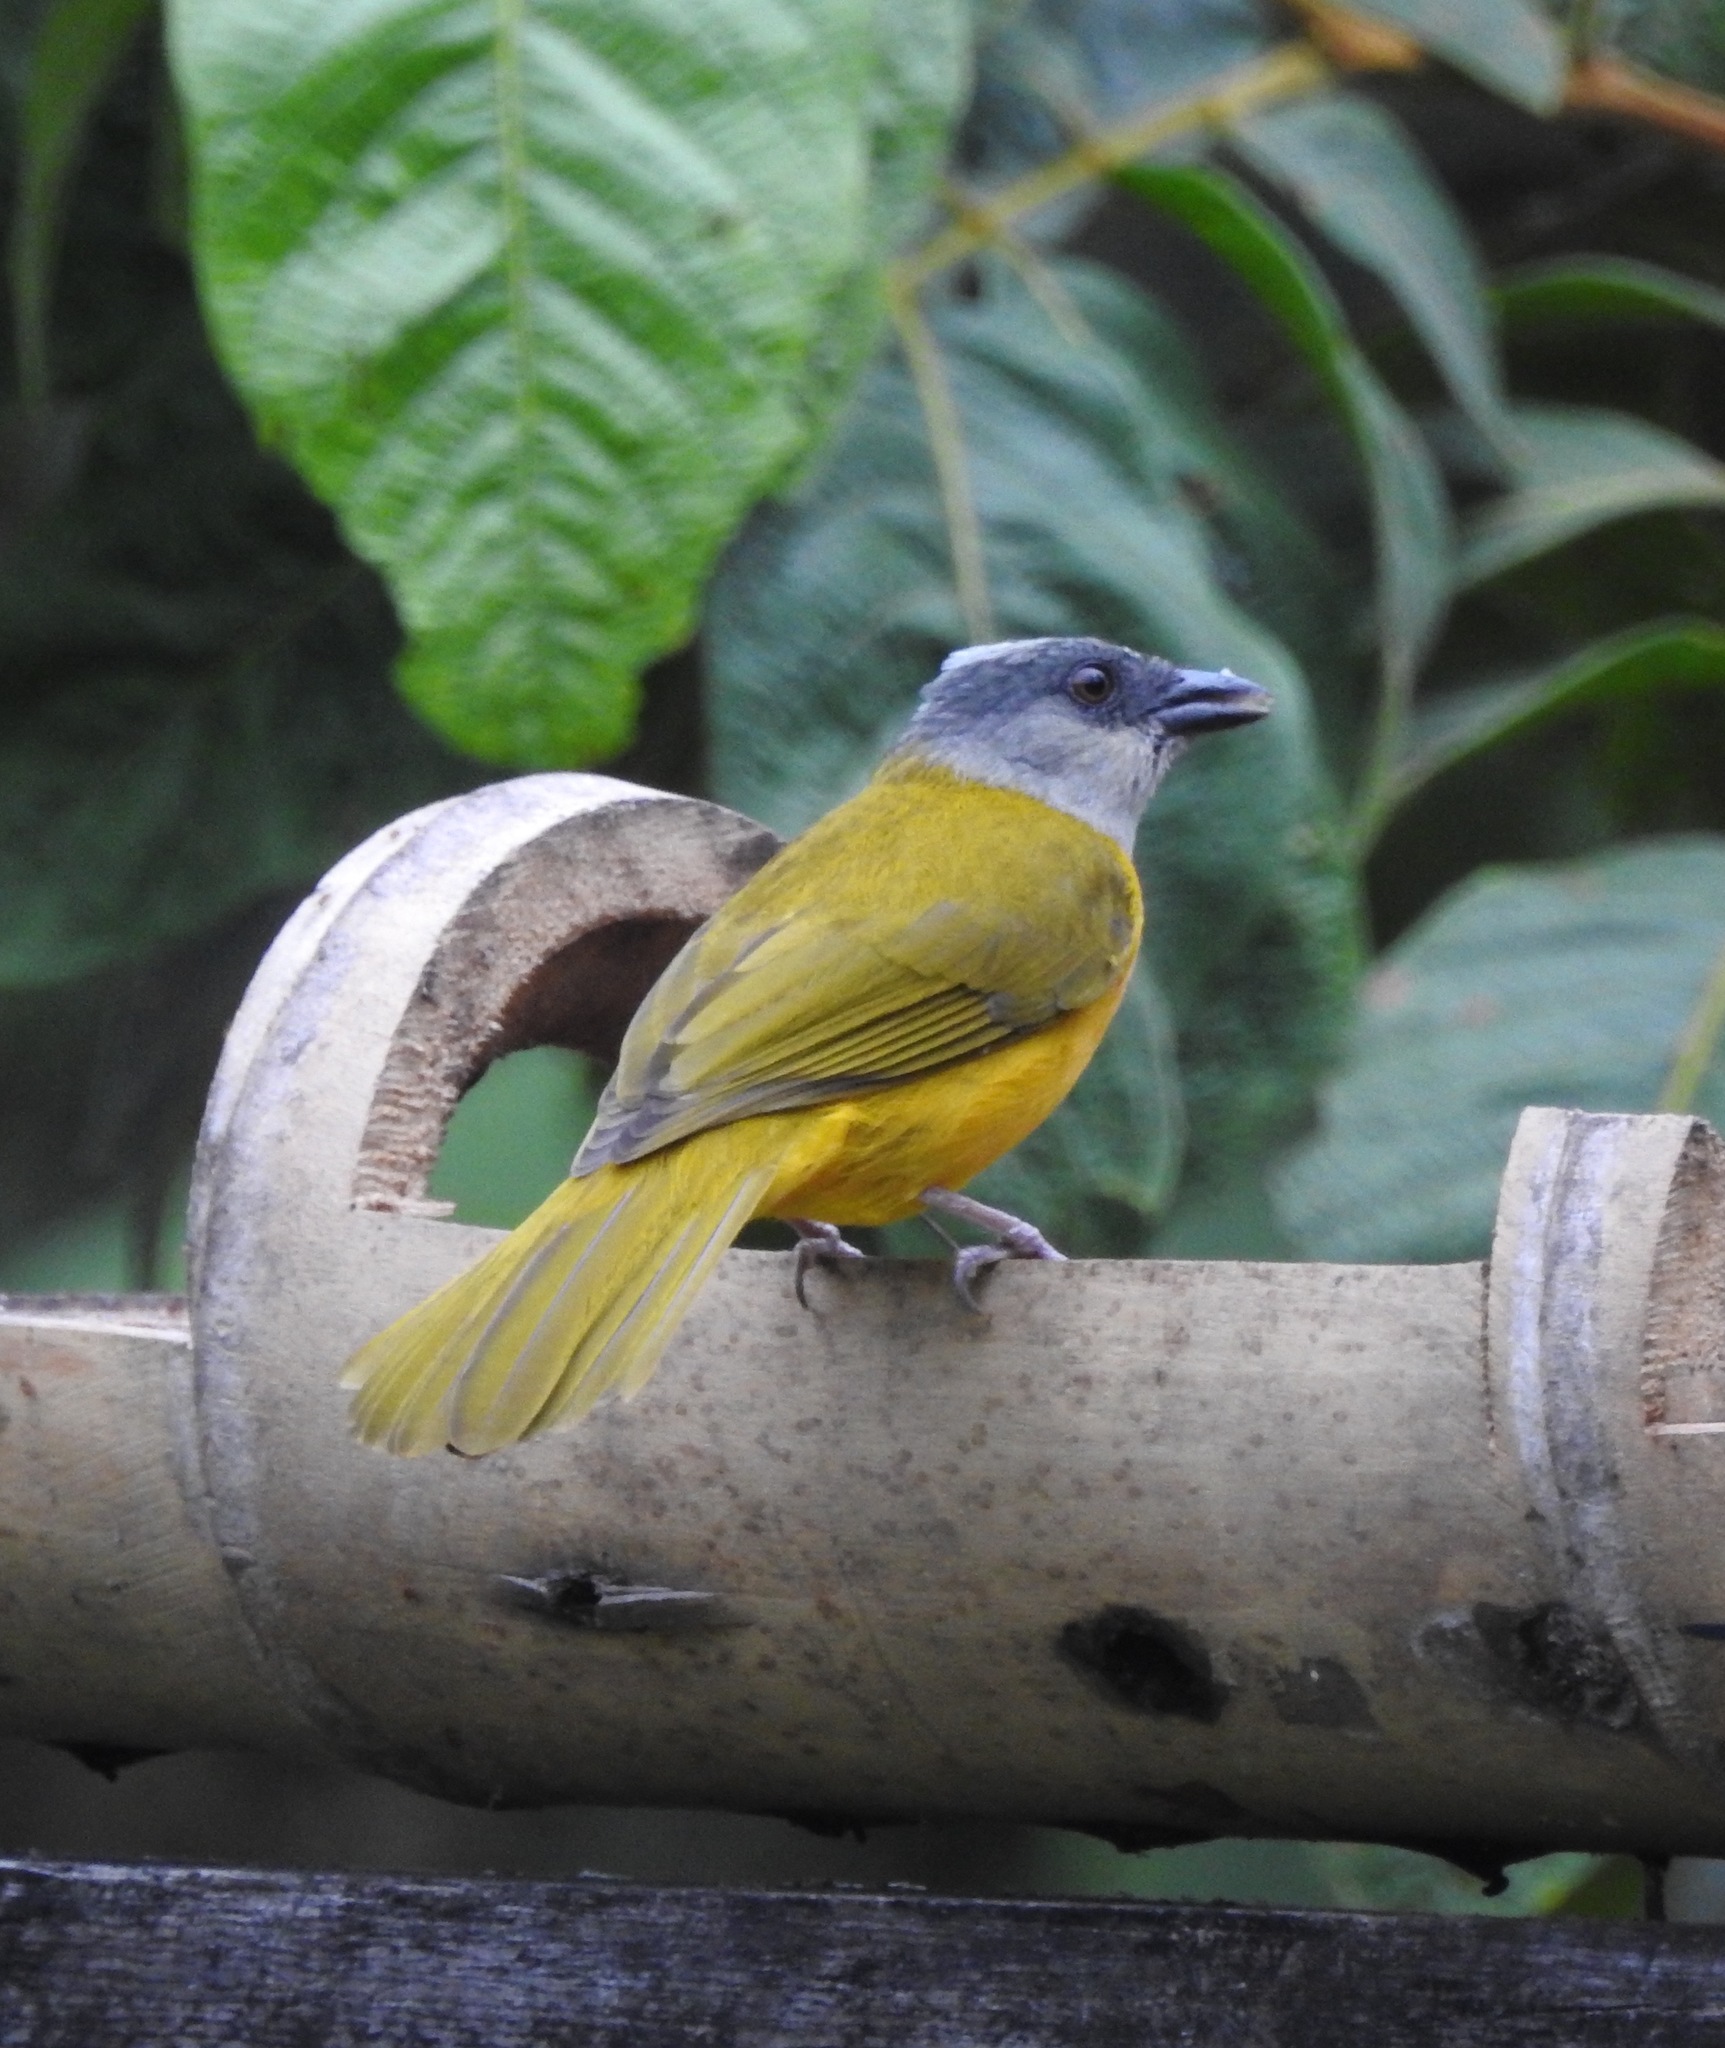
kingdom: Animalia
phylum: Chordata
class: Aves
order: Passeriformes
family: Thraupidae
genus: Eucometis
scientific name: Eucometis penicillata
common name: Grey-headed tanager
